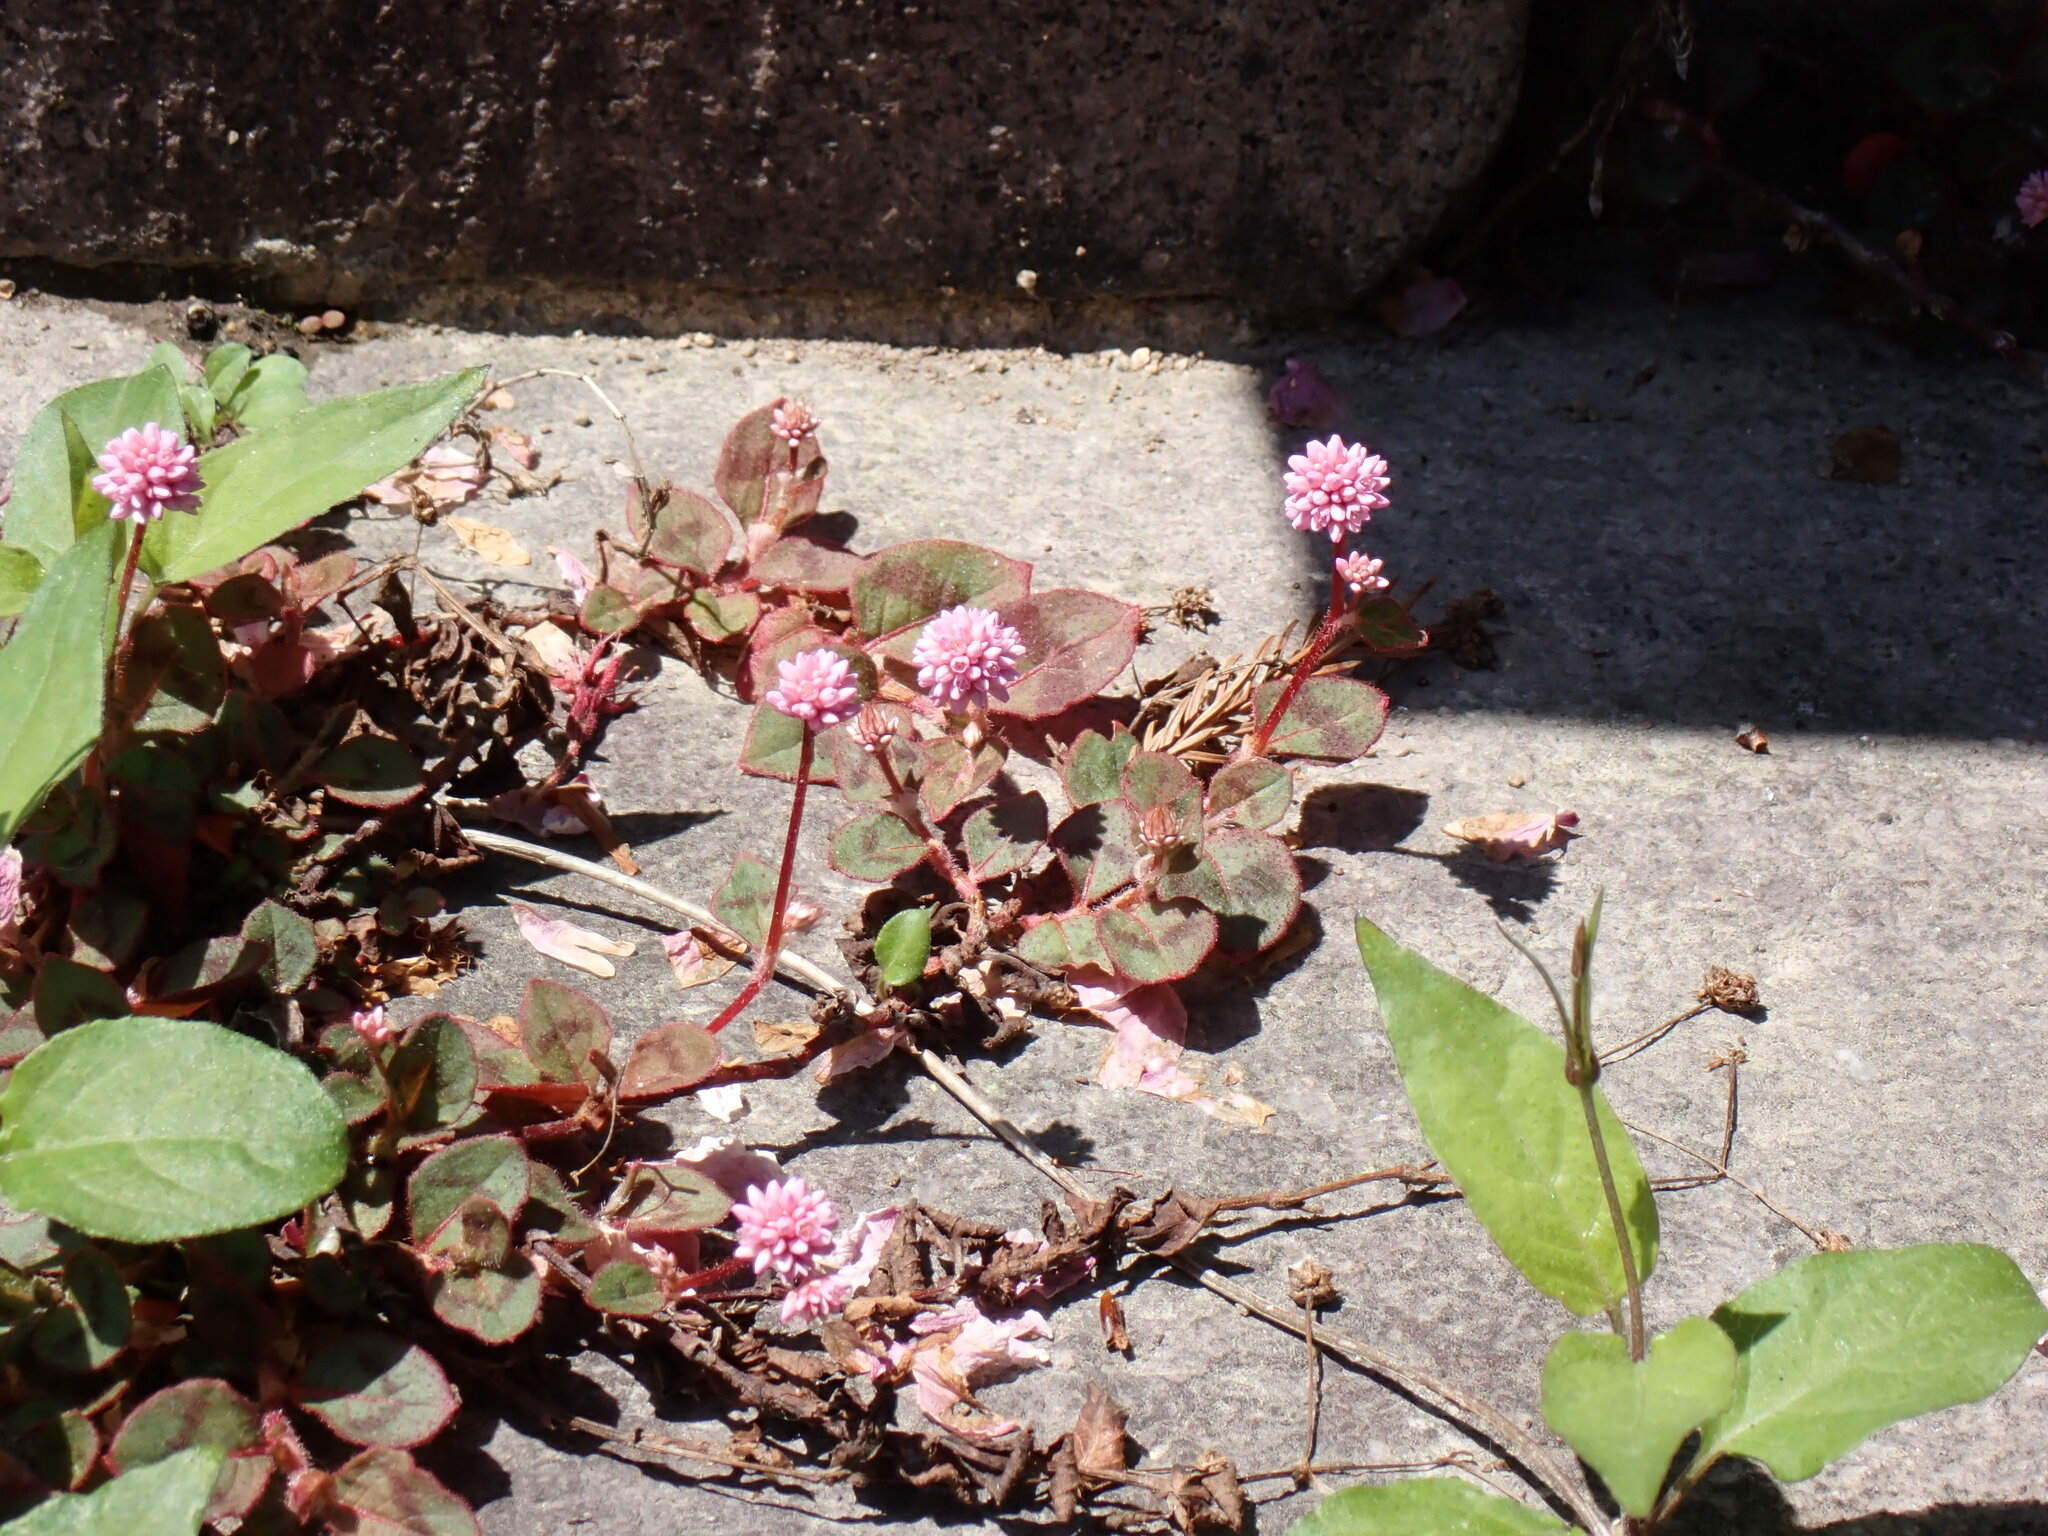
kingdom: Plantae
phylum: Tracheophyta
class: Magnoliopsida
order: Caryophyllales
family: Polygonaceae
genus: Persicaria
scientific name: Persicaria capitata
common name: Pinkhead smartweed
